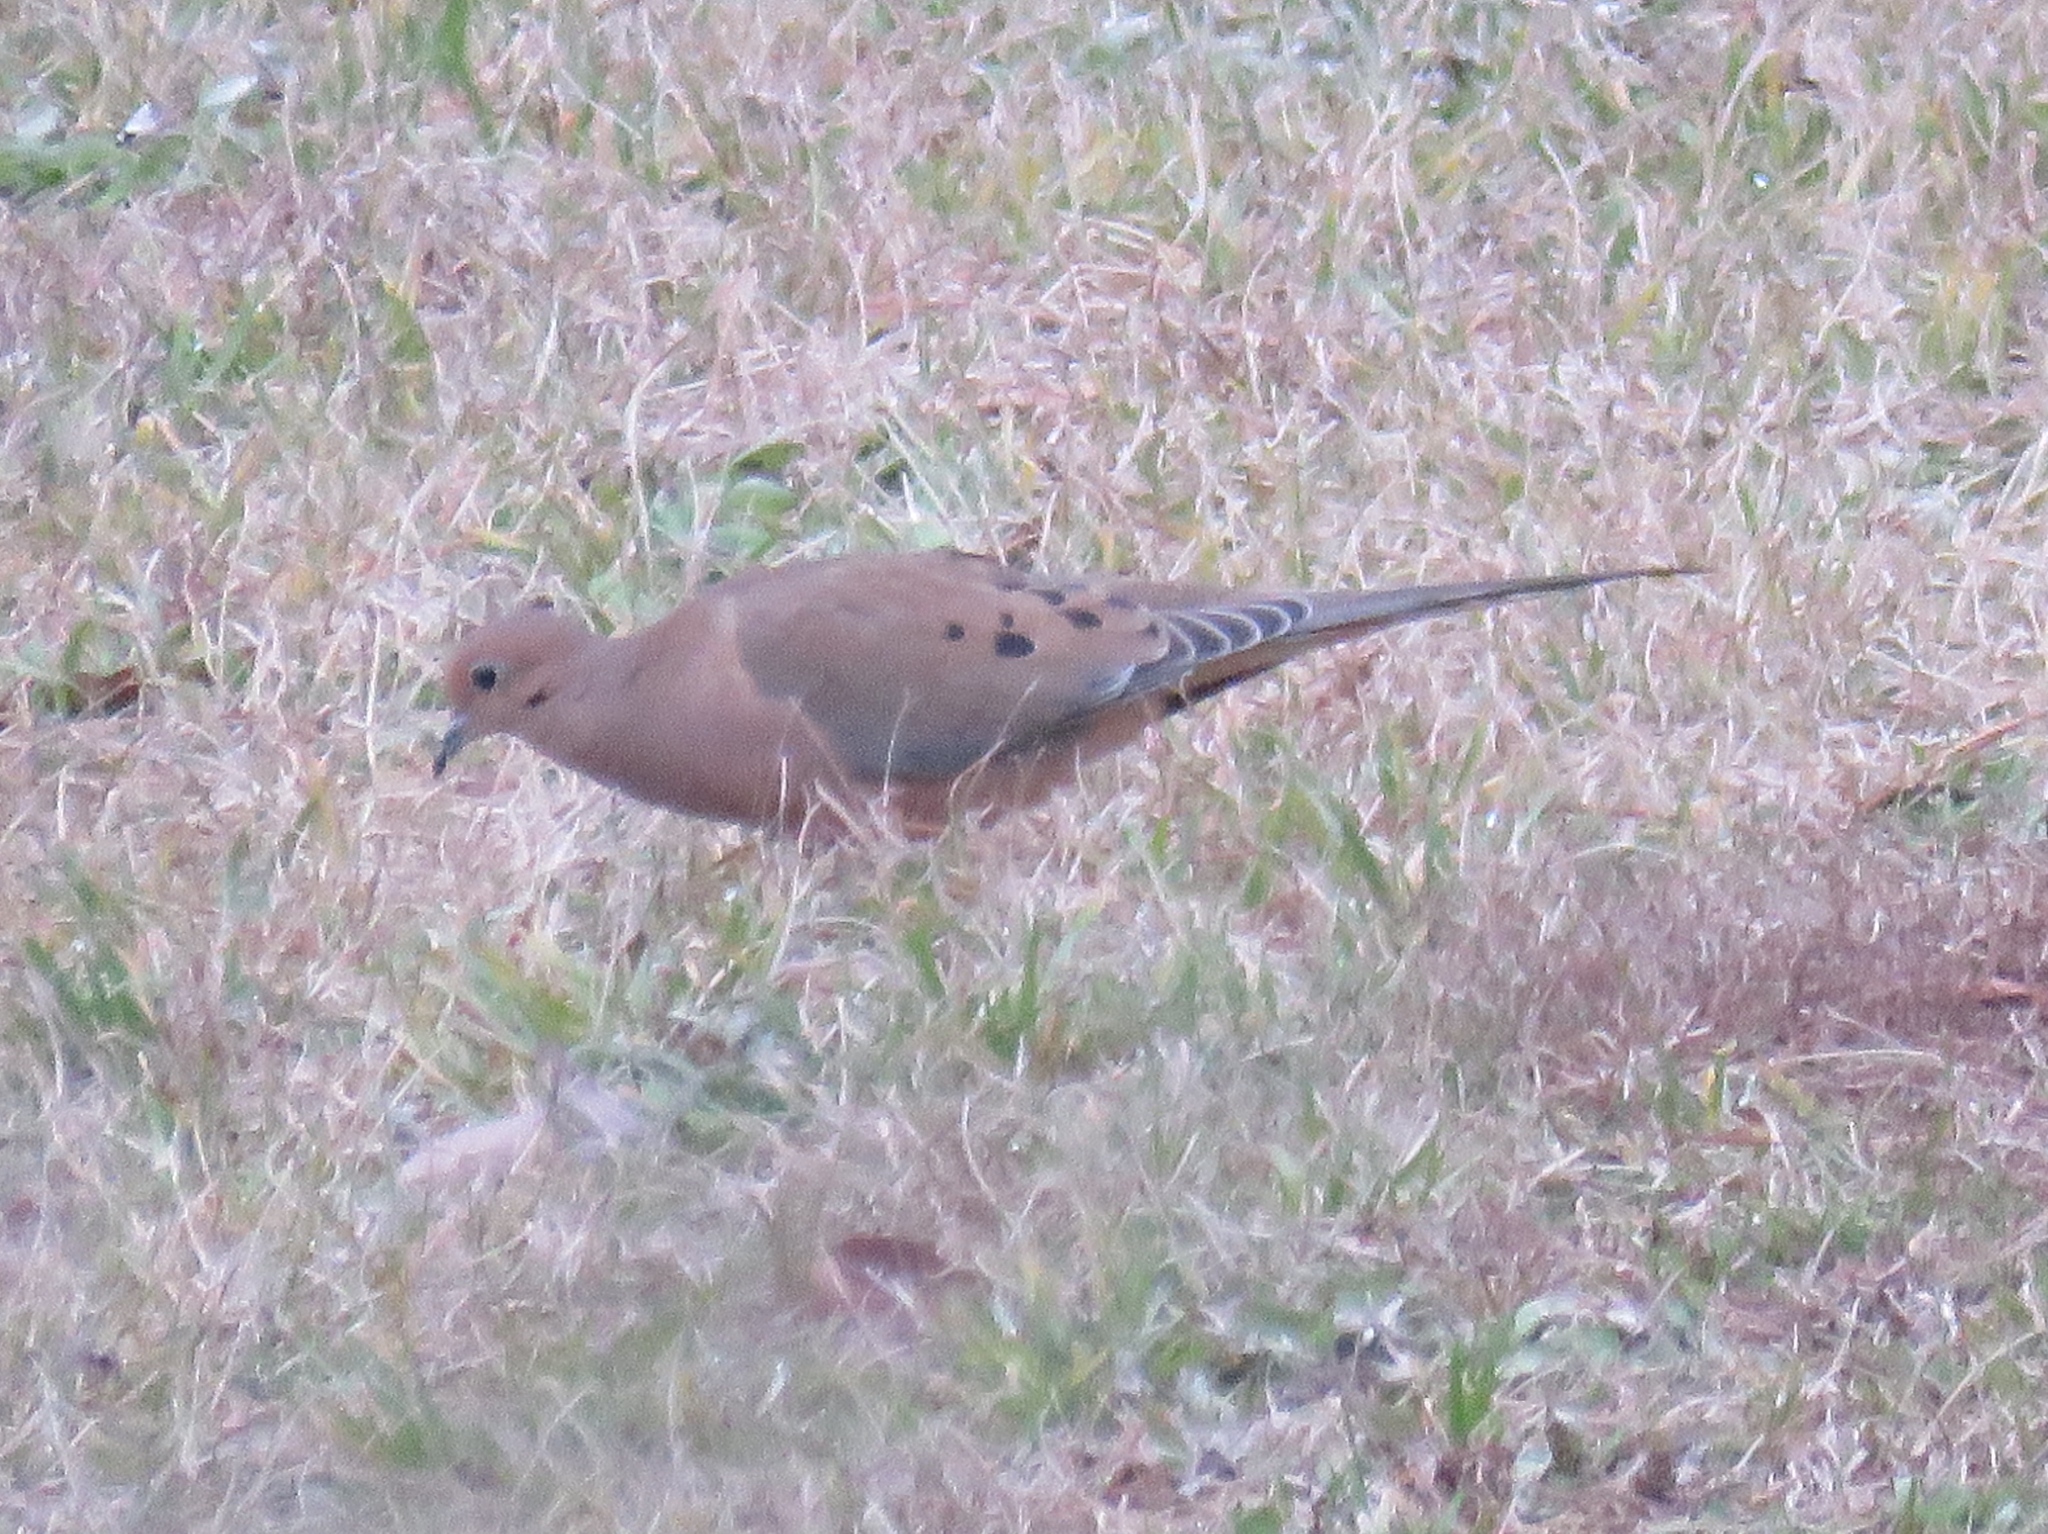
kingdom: Animalia
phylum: Chordata
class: Aves
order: Columbiformes
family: Columbidae
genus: Zenaida
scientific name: Zenaida macroura
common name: Mourning dove
